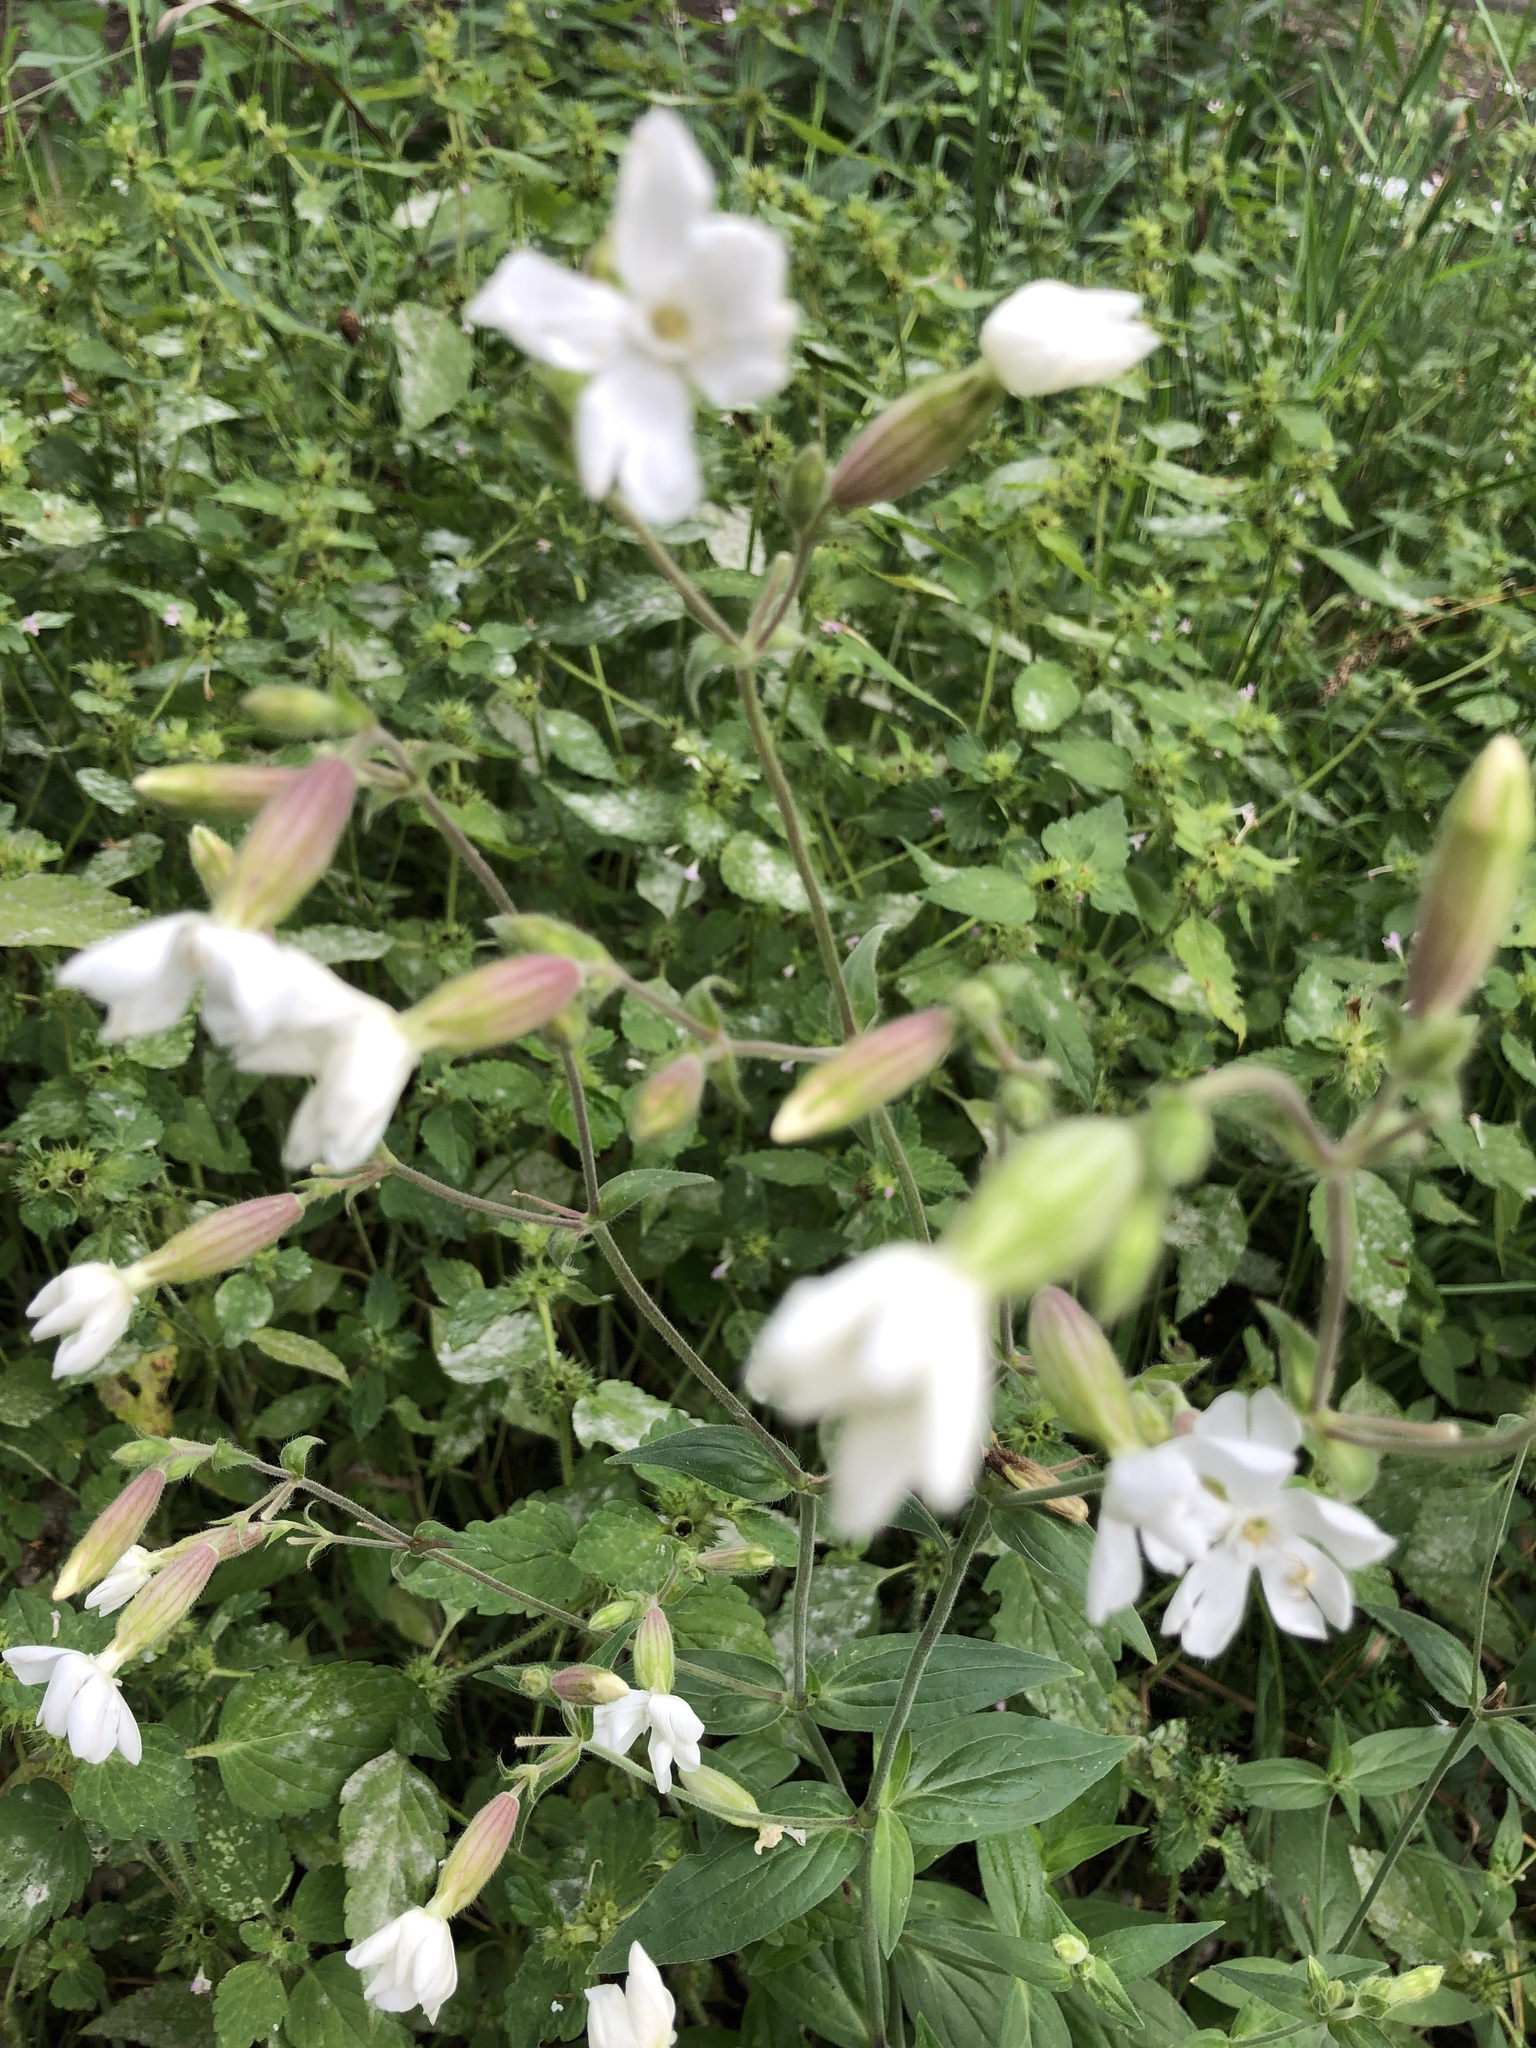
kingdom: Plantae
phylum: Tracheophyta
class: Magnoliopsida
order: Caryophyllales
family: Caryophyllaceae
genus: Silene
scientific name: Silene latifolia
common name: White campion
